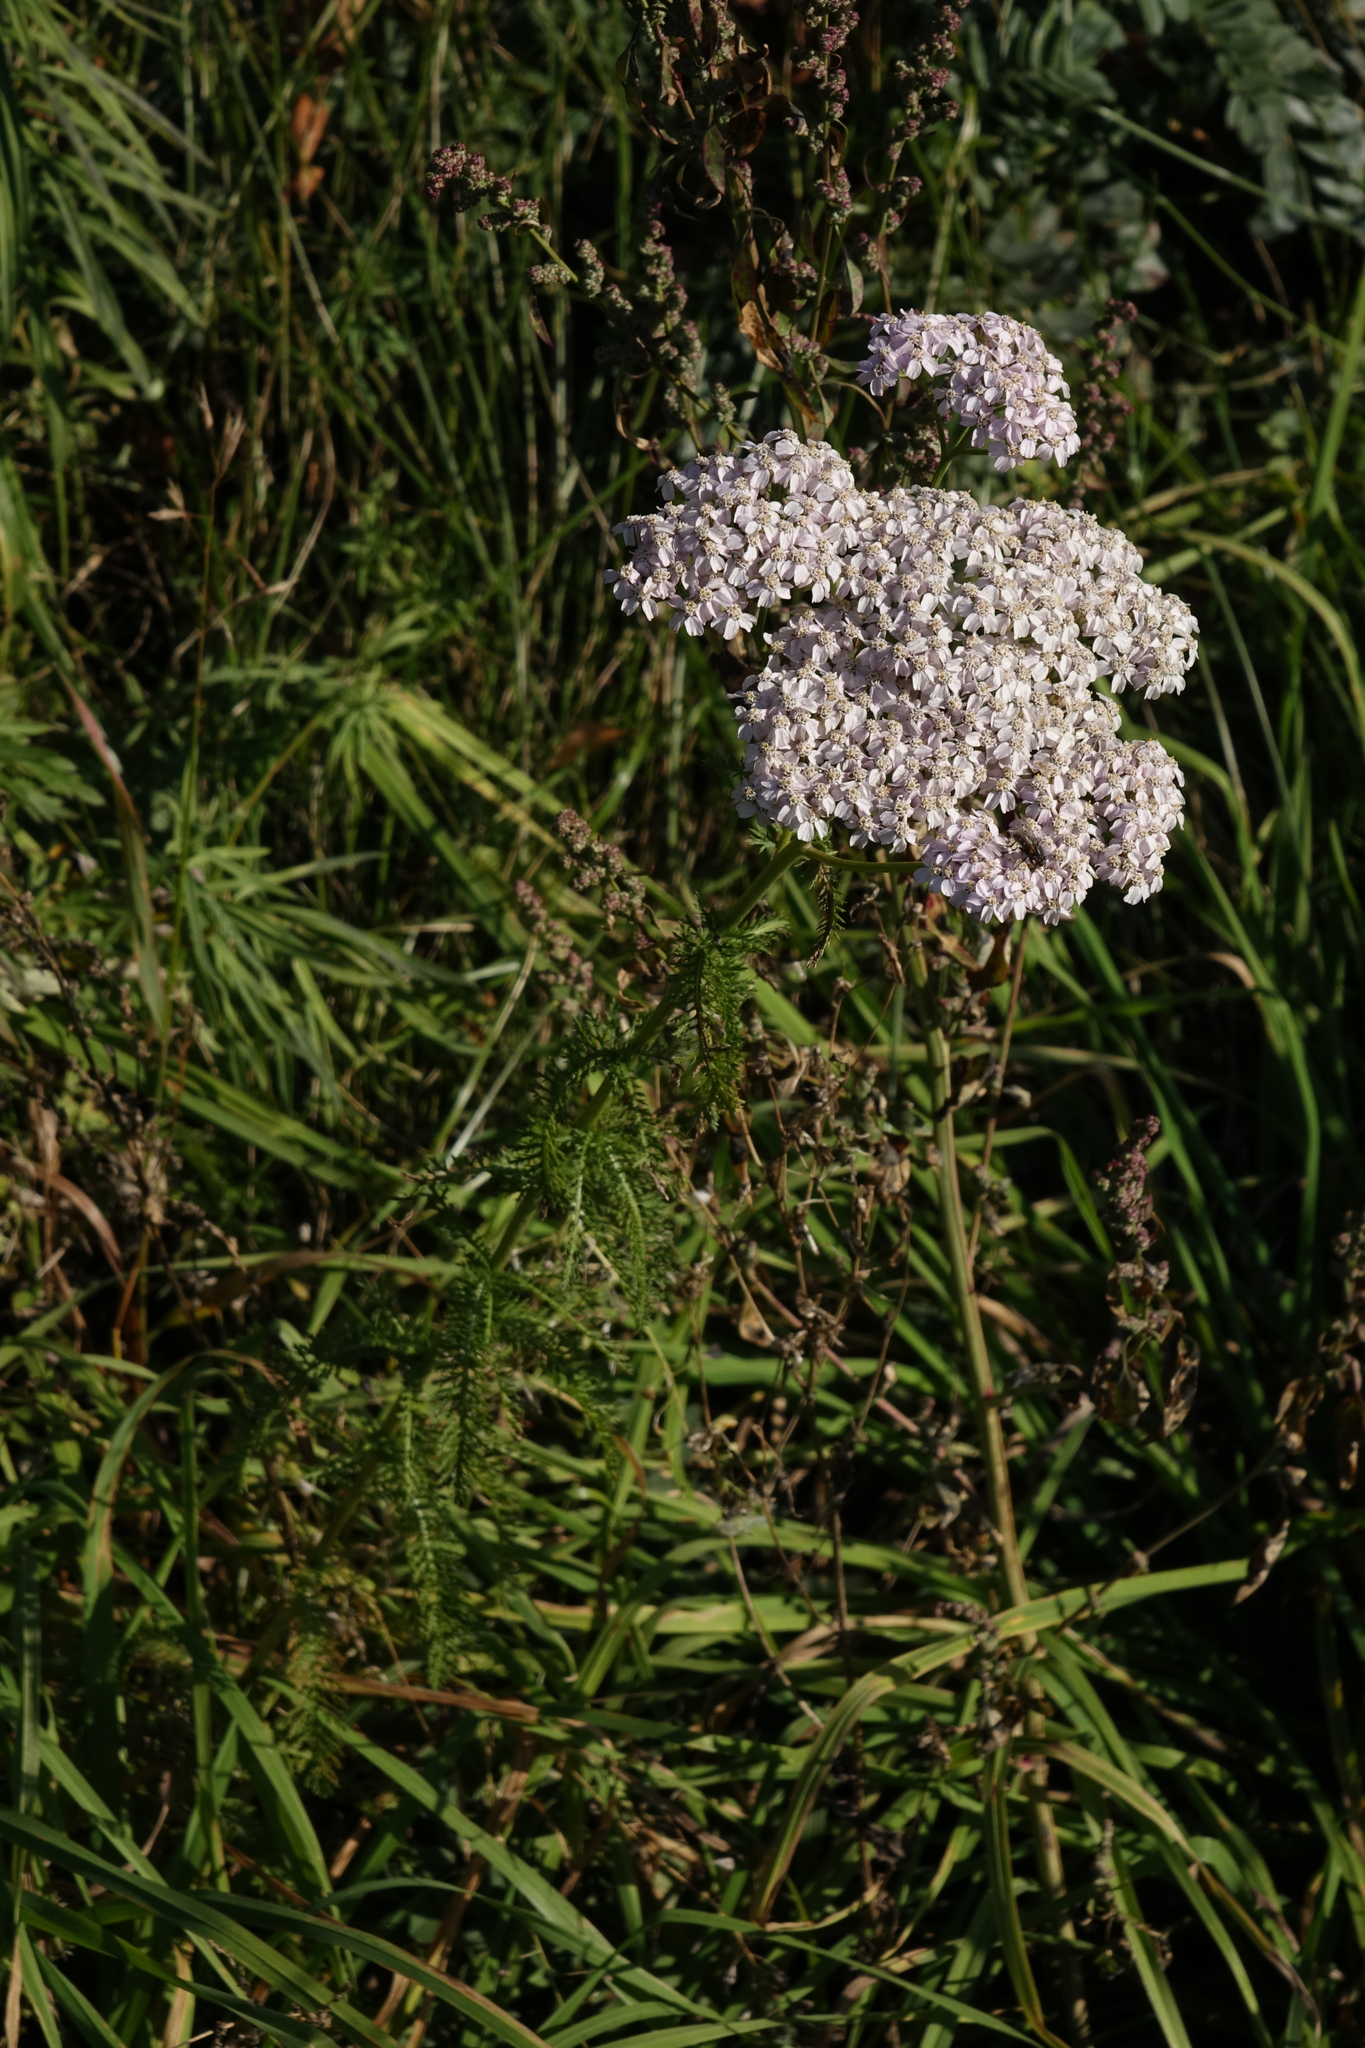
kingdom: Plantae
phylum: Tracheophyta
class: Magnoliopsida
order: Asterales
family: Asteraceae
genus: Achillea
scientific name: Achillea millefolium
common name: Yarrow
